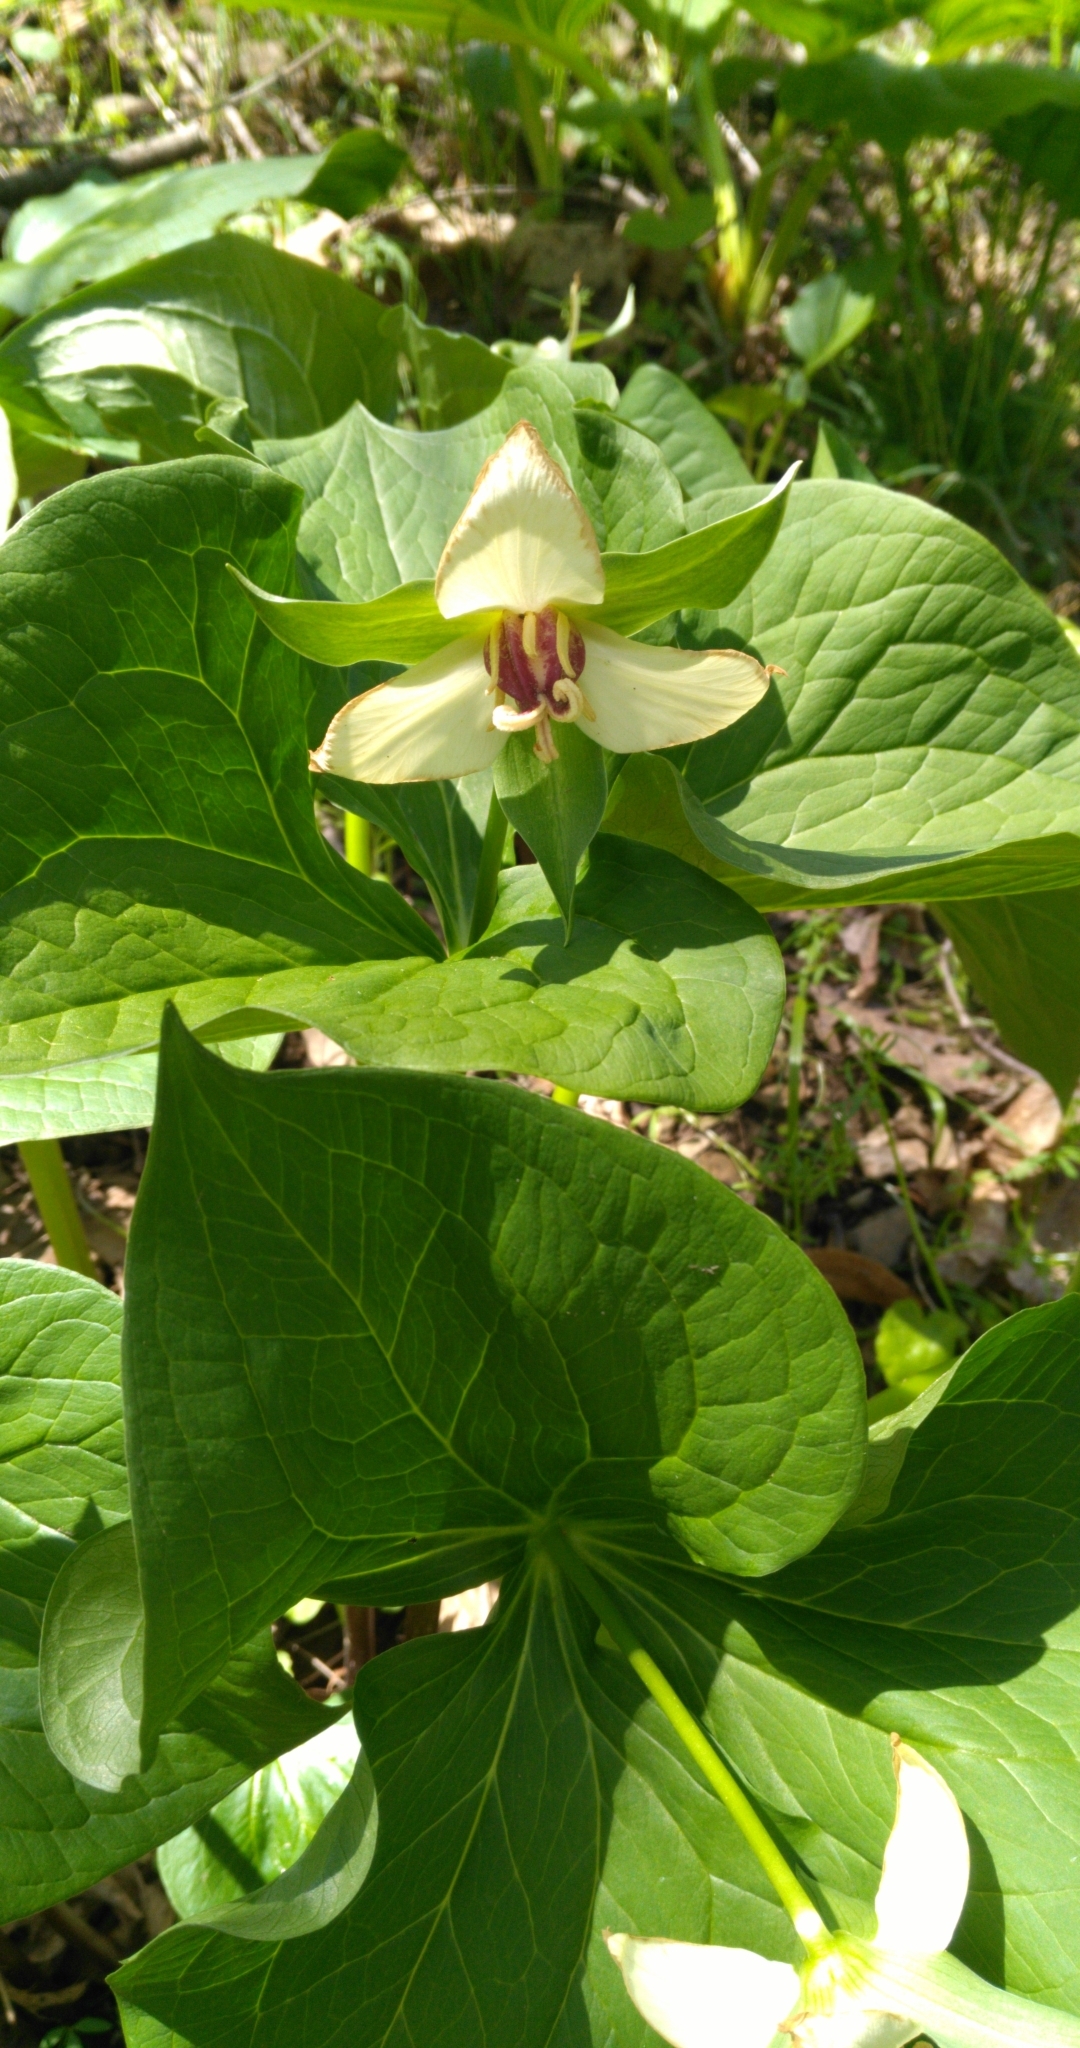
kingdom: Plantae
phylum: Tracheophyta
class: Liliopsida
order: Liliales
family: Melanthiaceae
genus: Trillium
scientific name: Trillium erectum
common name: Purple trillium
